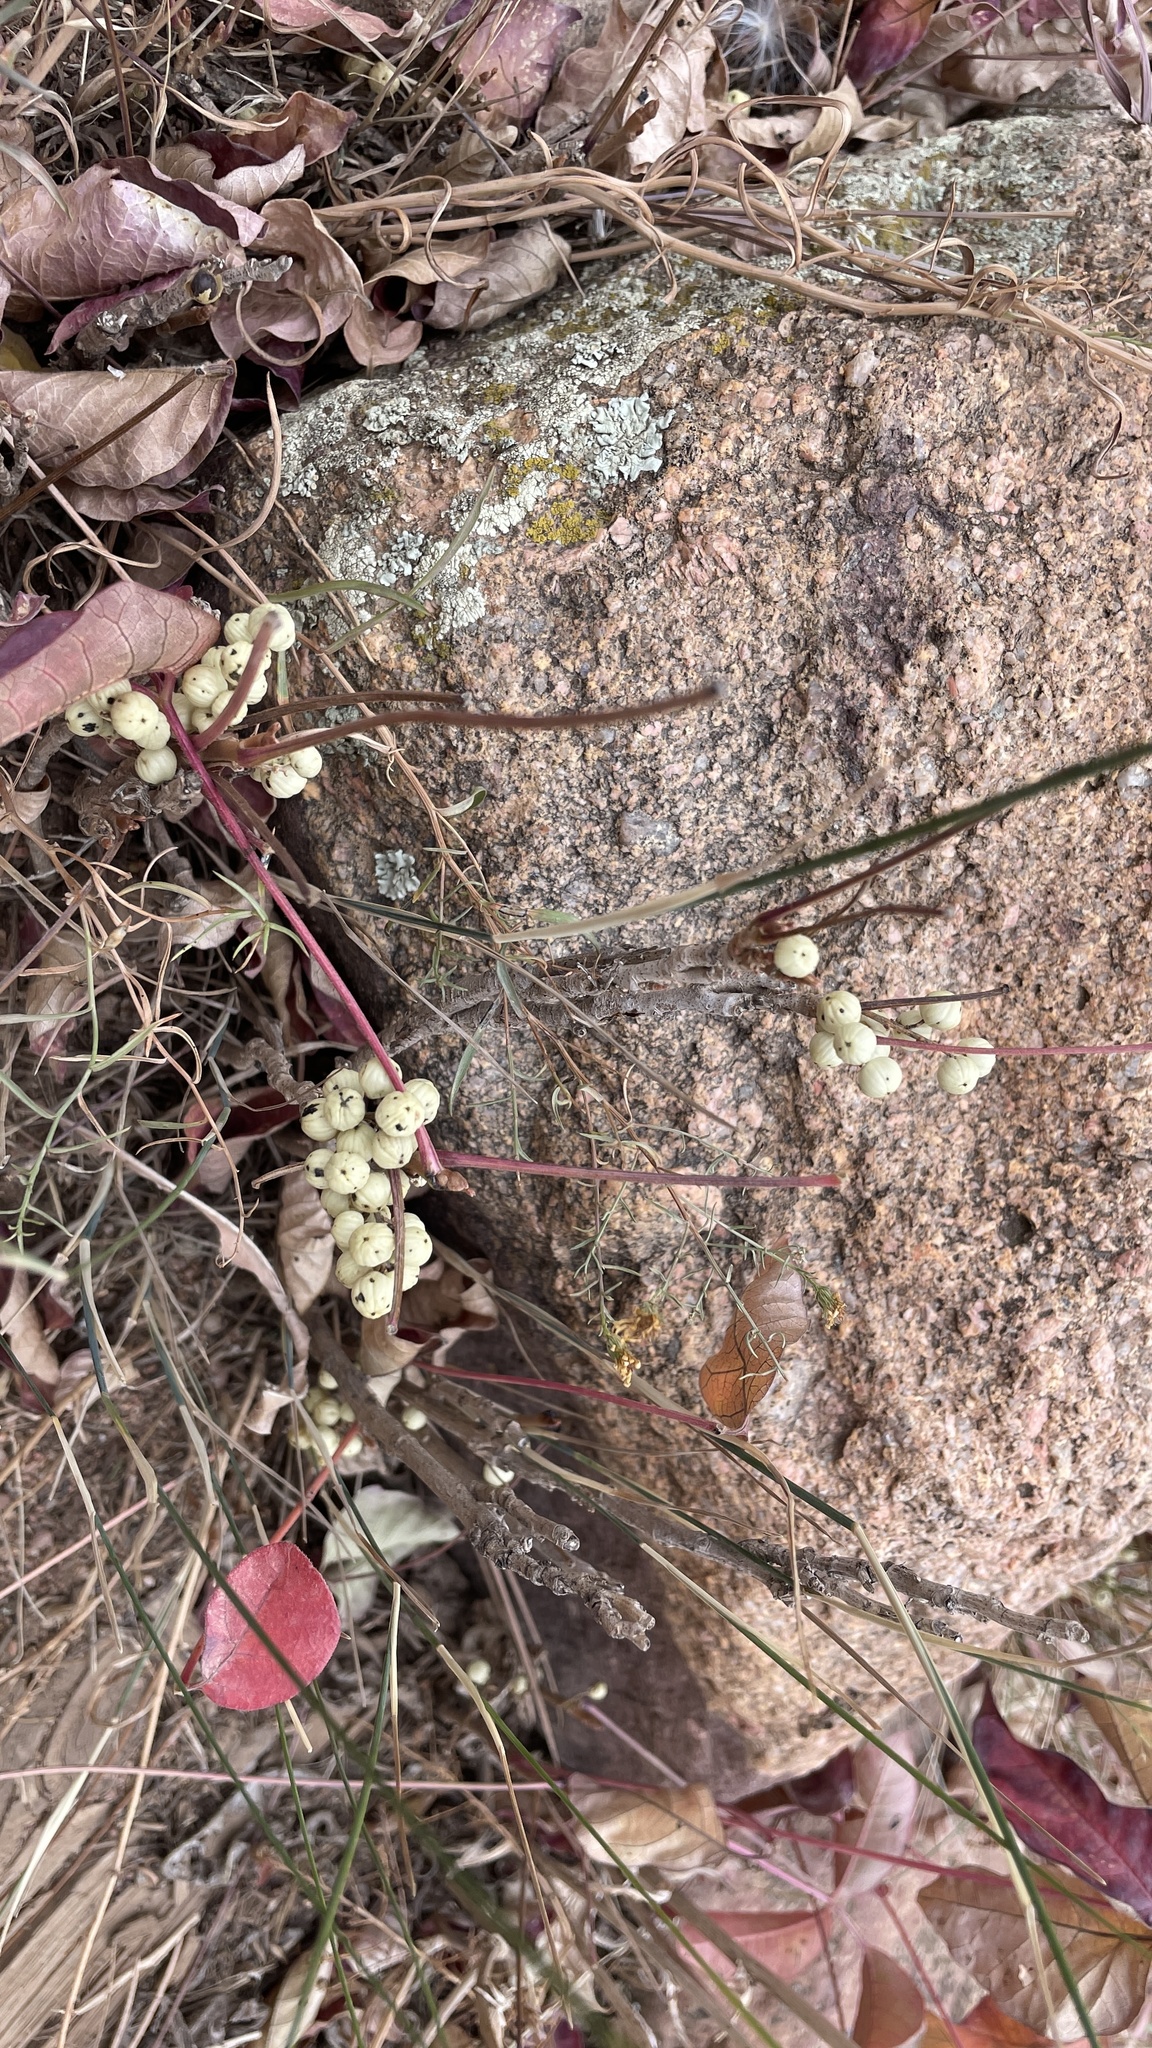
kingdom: Plantae
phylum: Tracheophyta
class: Magnoliopsida
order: Sapindales
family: Anacardiaceae
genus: Toxicodendron
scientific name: Toxicodendron rydbergii
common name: Rydberg's poison-ivy
